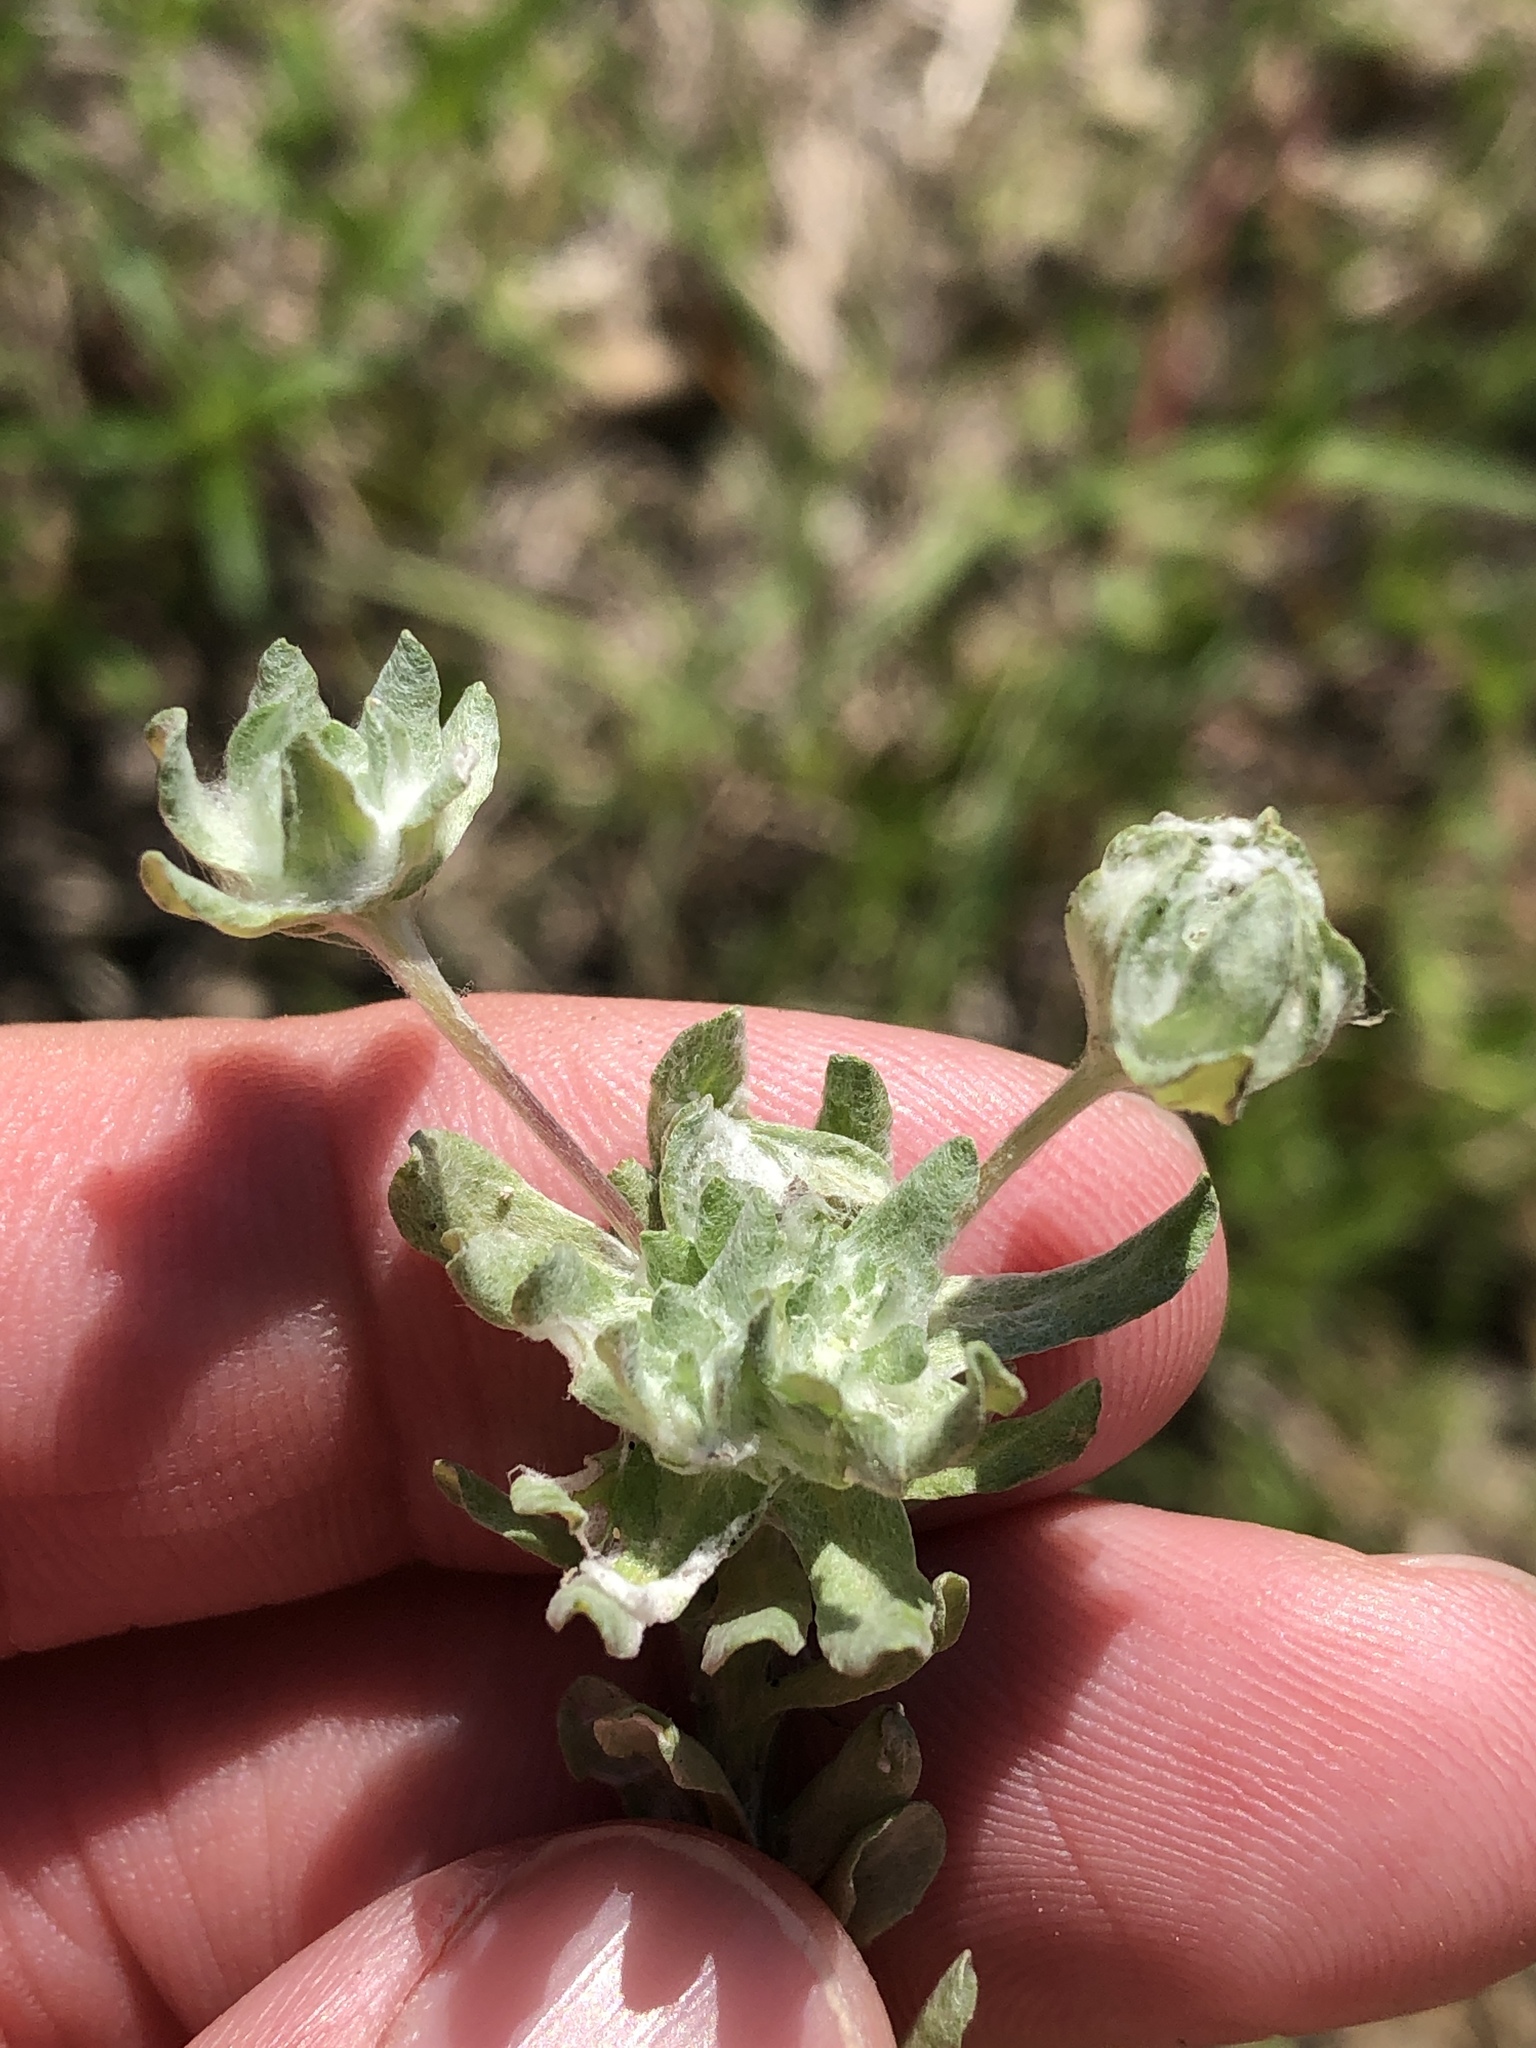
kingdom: Plantae
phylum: Tracheophyta
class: Magnoliopsida
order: Asterales
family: Asteraceae
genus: Diaperia
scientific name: Diaperia prolifera
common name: Big-head rabbit-tobacco
